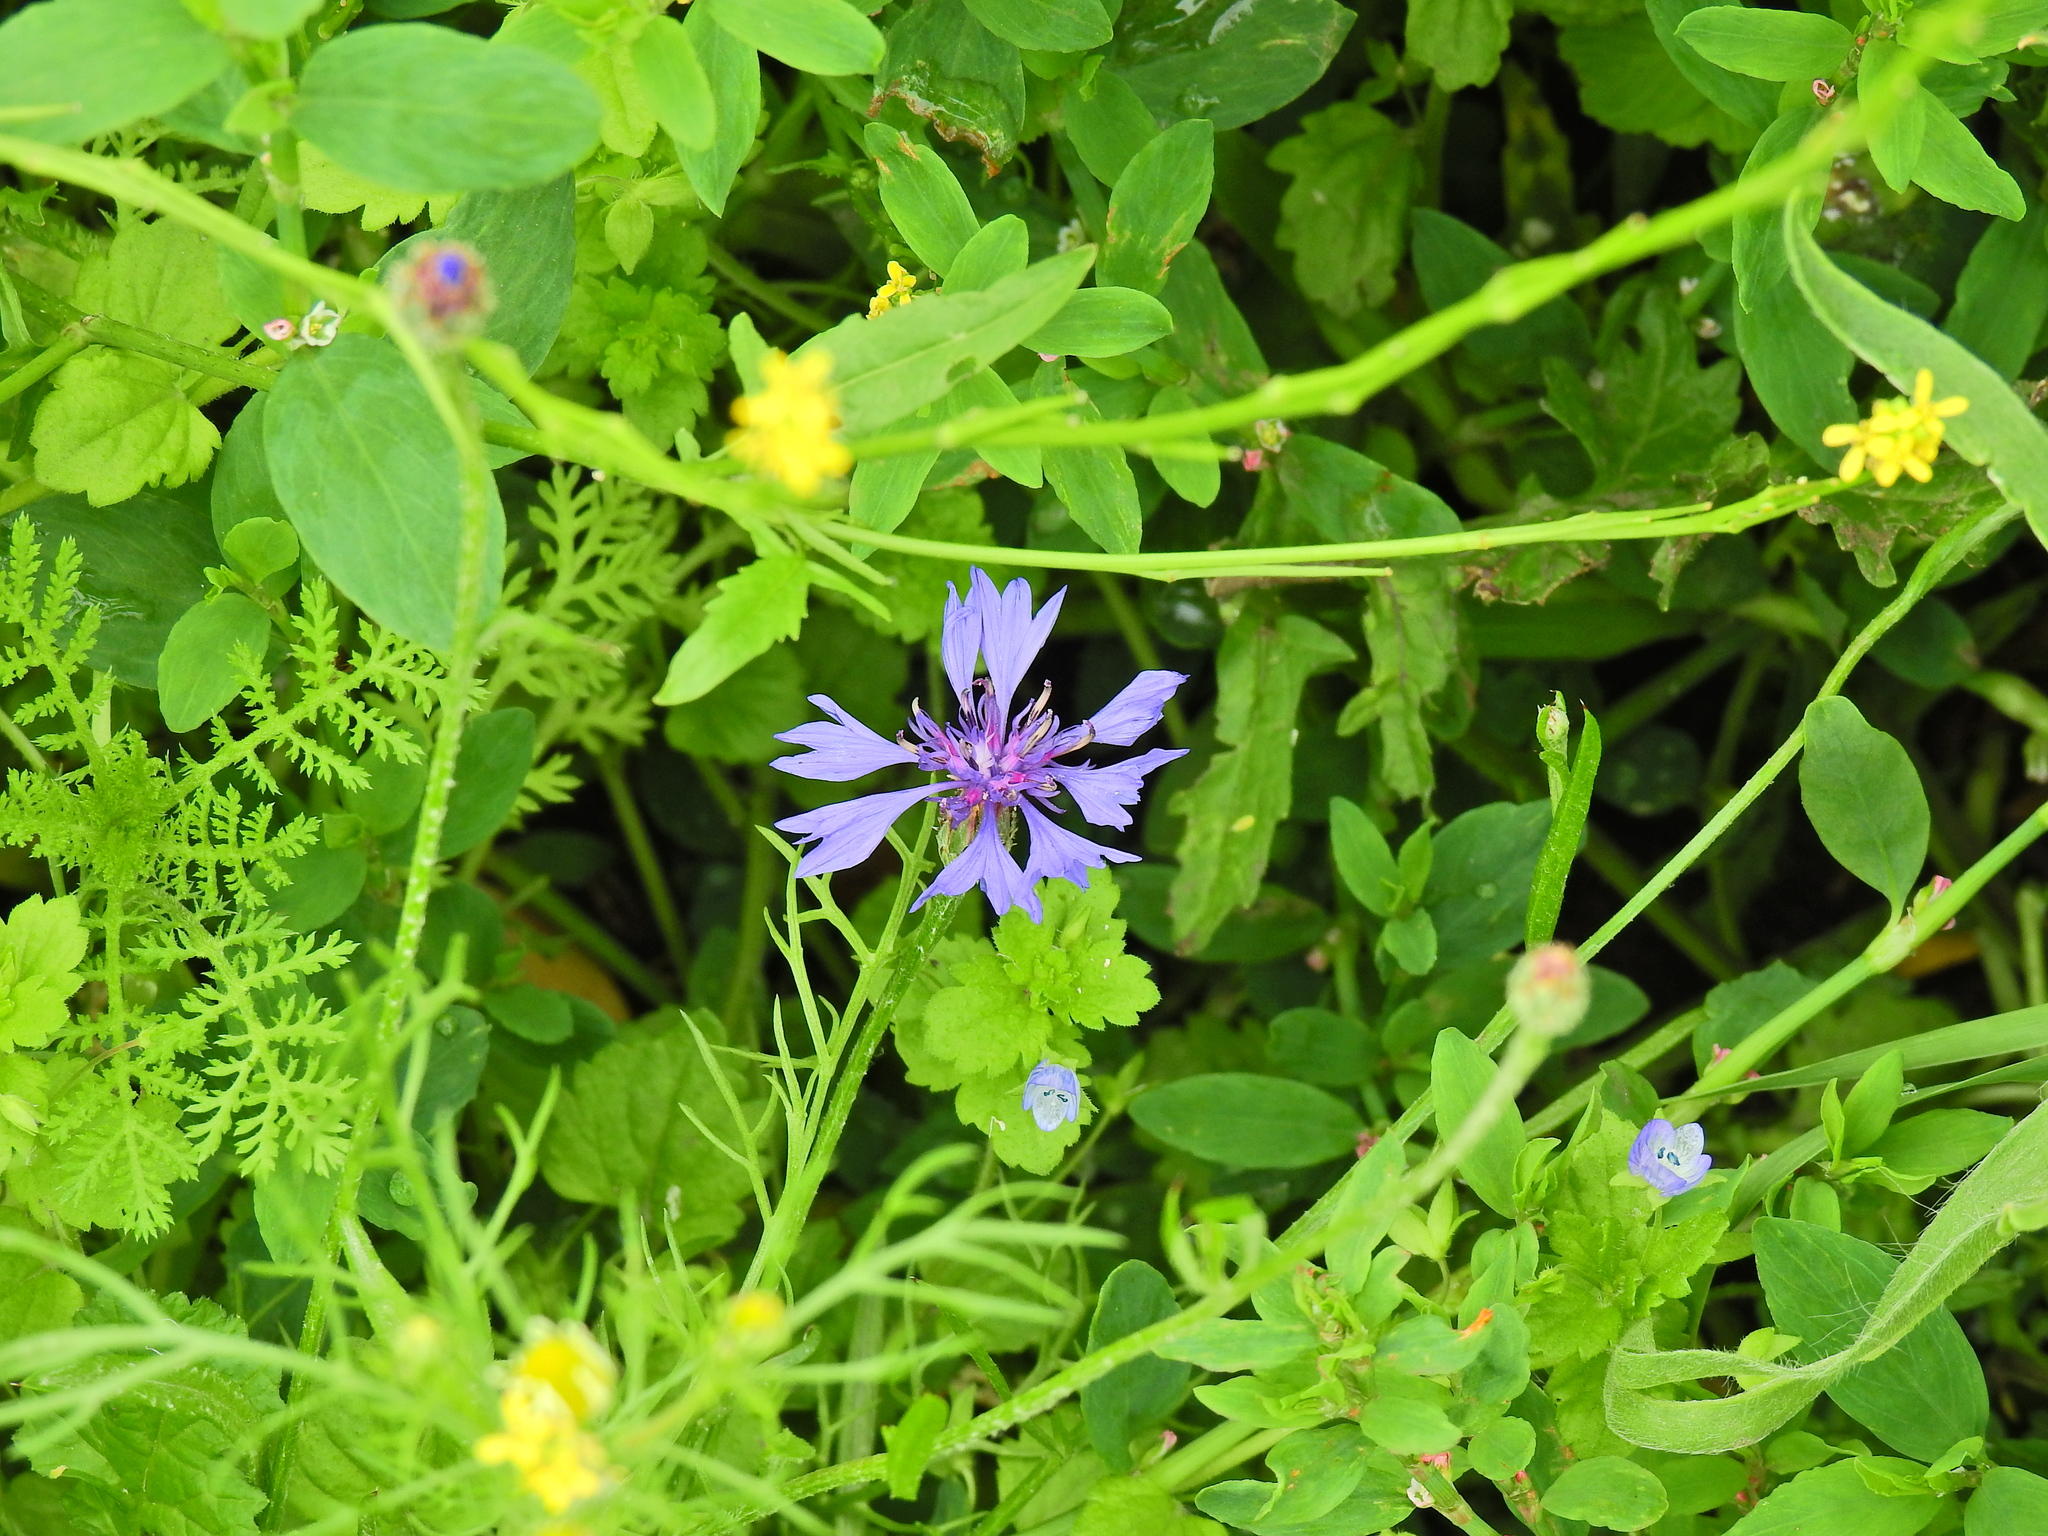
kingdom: Plantae
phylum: Tracheophyta
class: Magnoliopsida
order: Asterales
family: Asteraceae
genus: Centaurea
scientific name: Centaurea cyanus
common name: Cornflower
